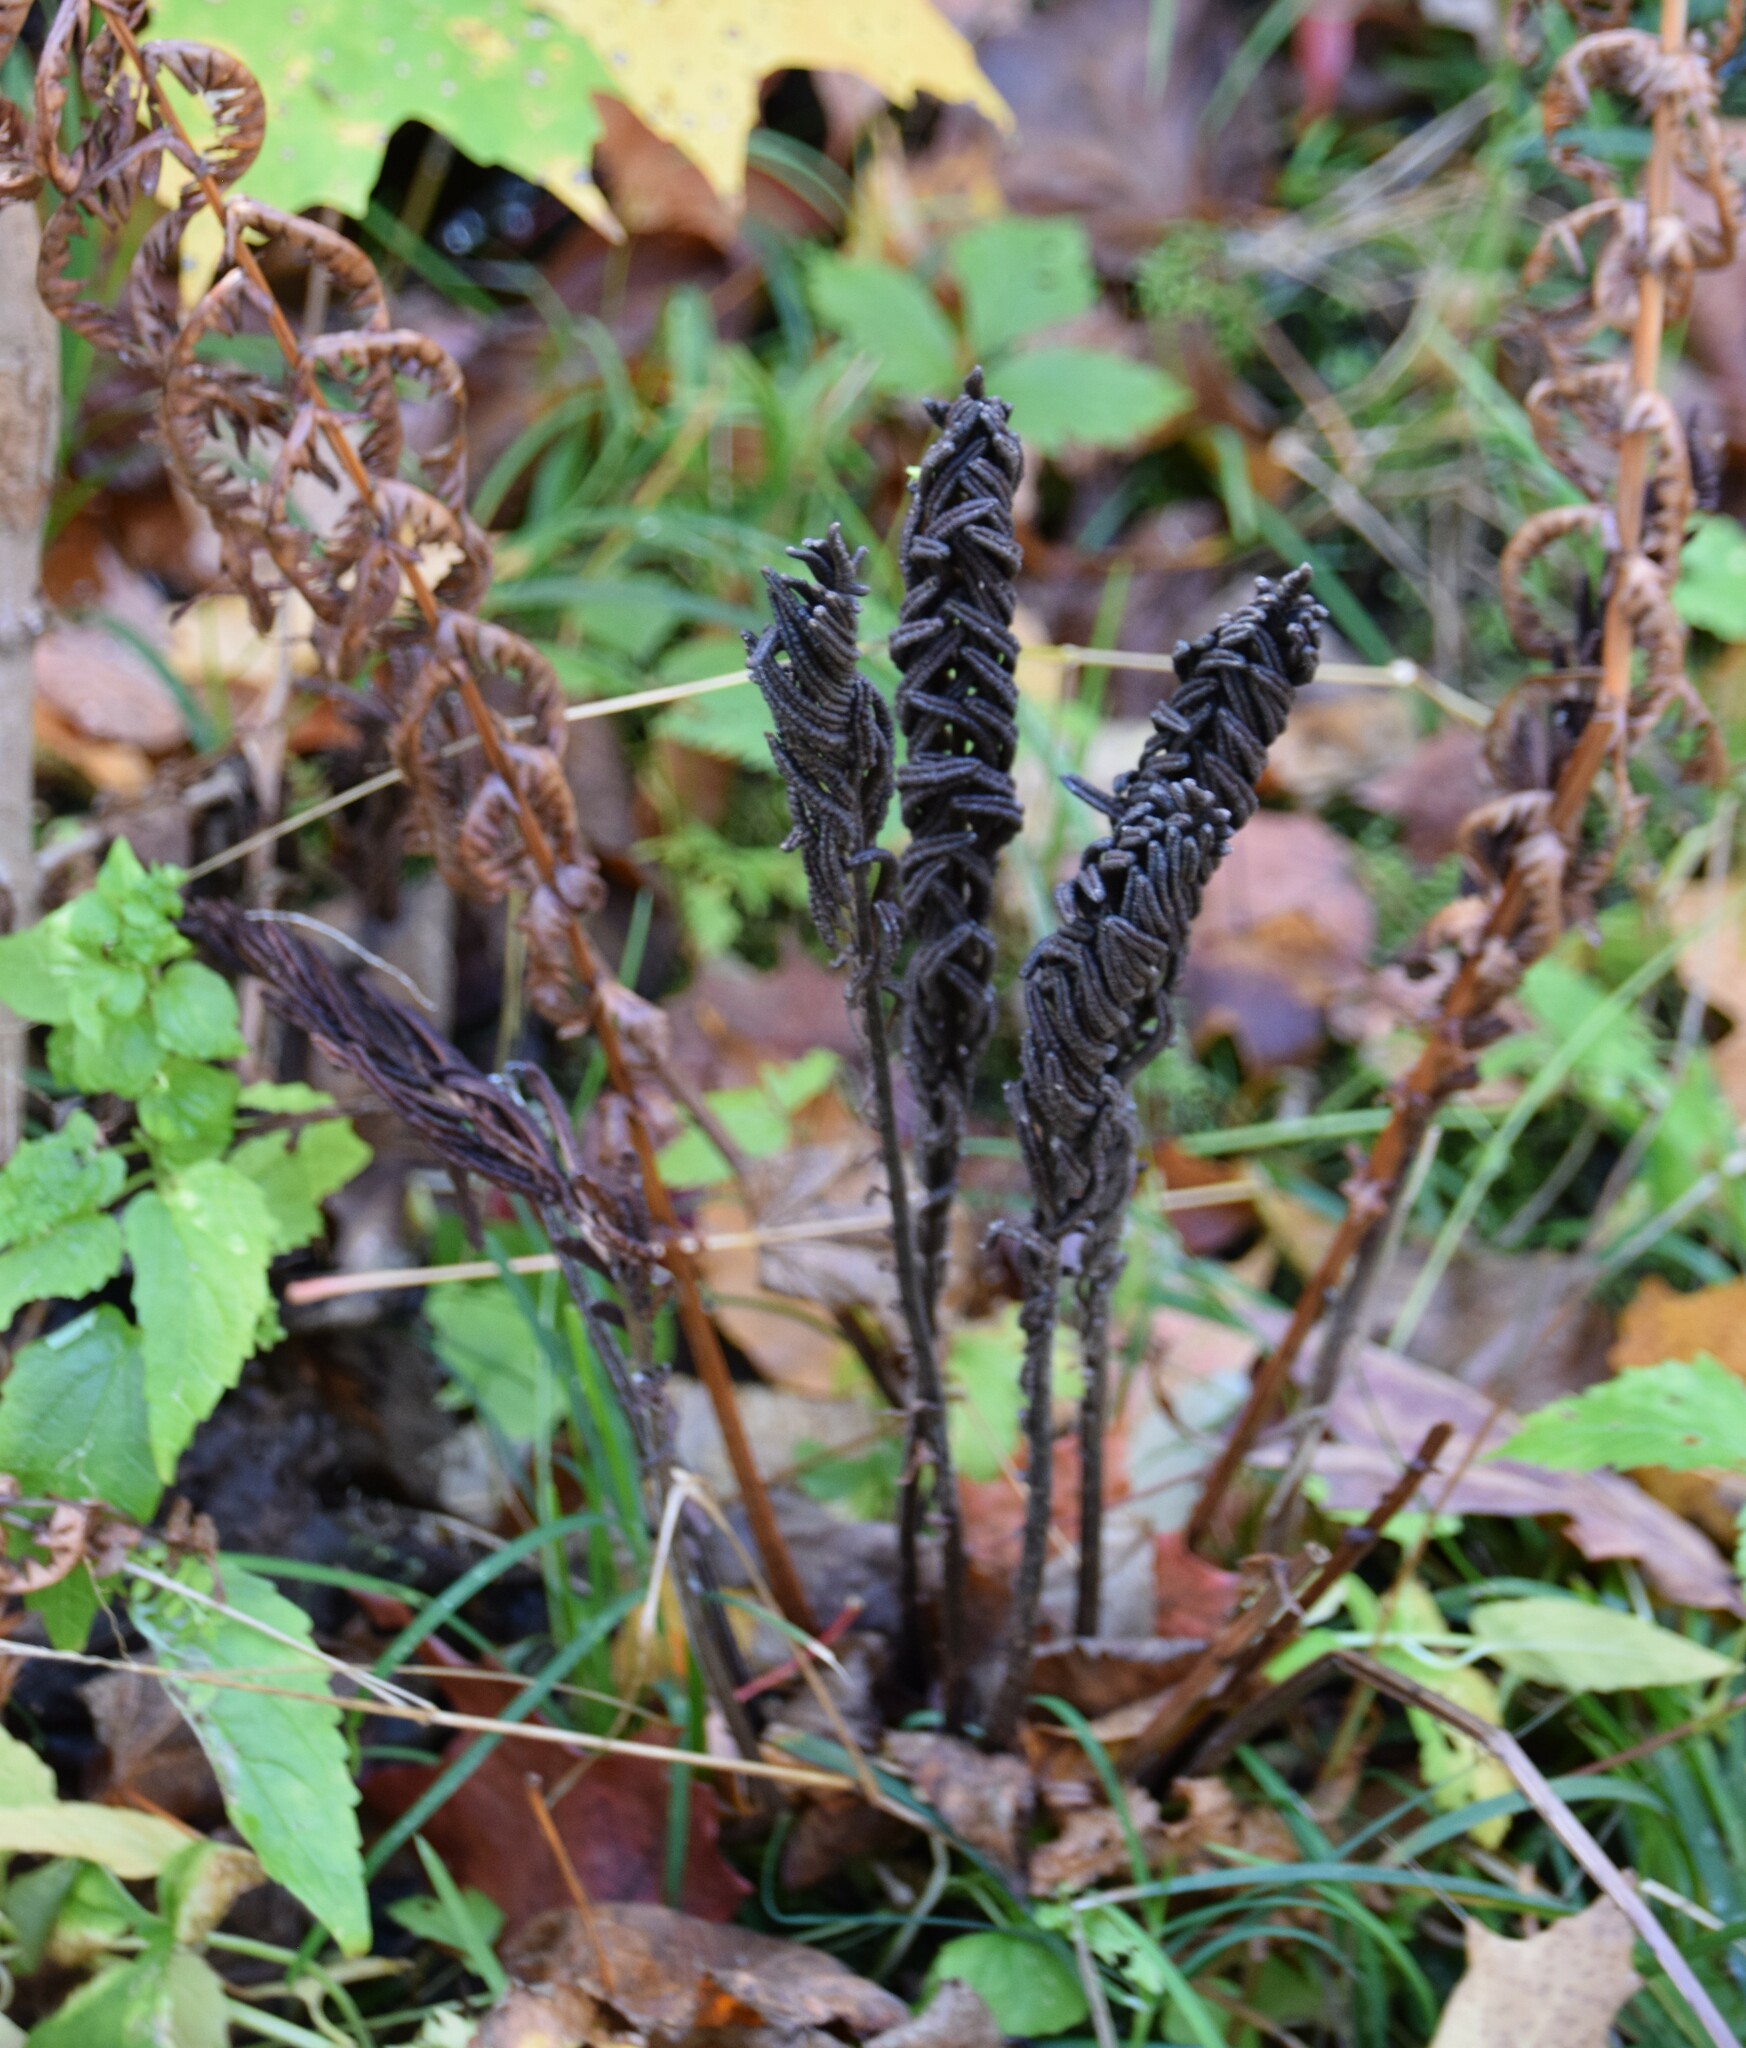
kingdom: Plantae
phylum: Tracheophyta
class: Polypodiopsida
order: Polypodiales
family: Onocleaceae
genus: Matteuccia
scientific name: Matteuccia struthiopteris
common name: Ostrich fern
